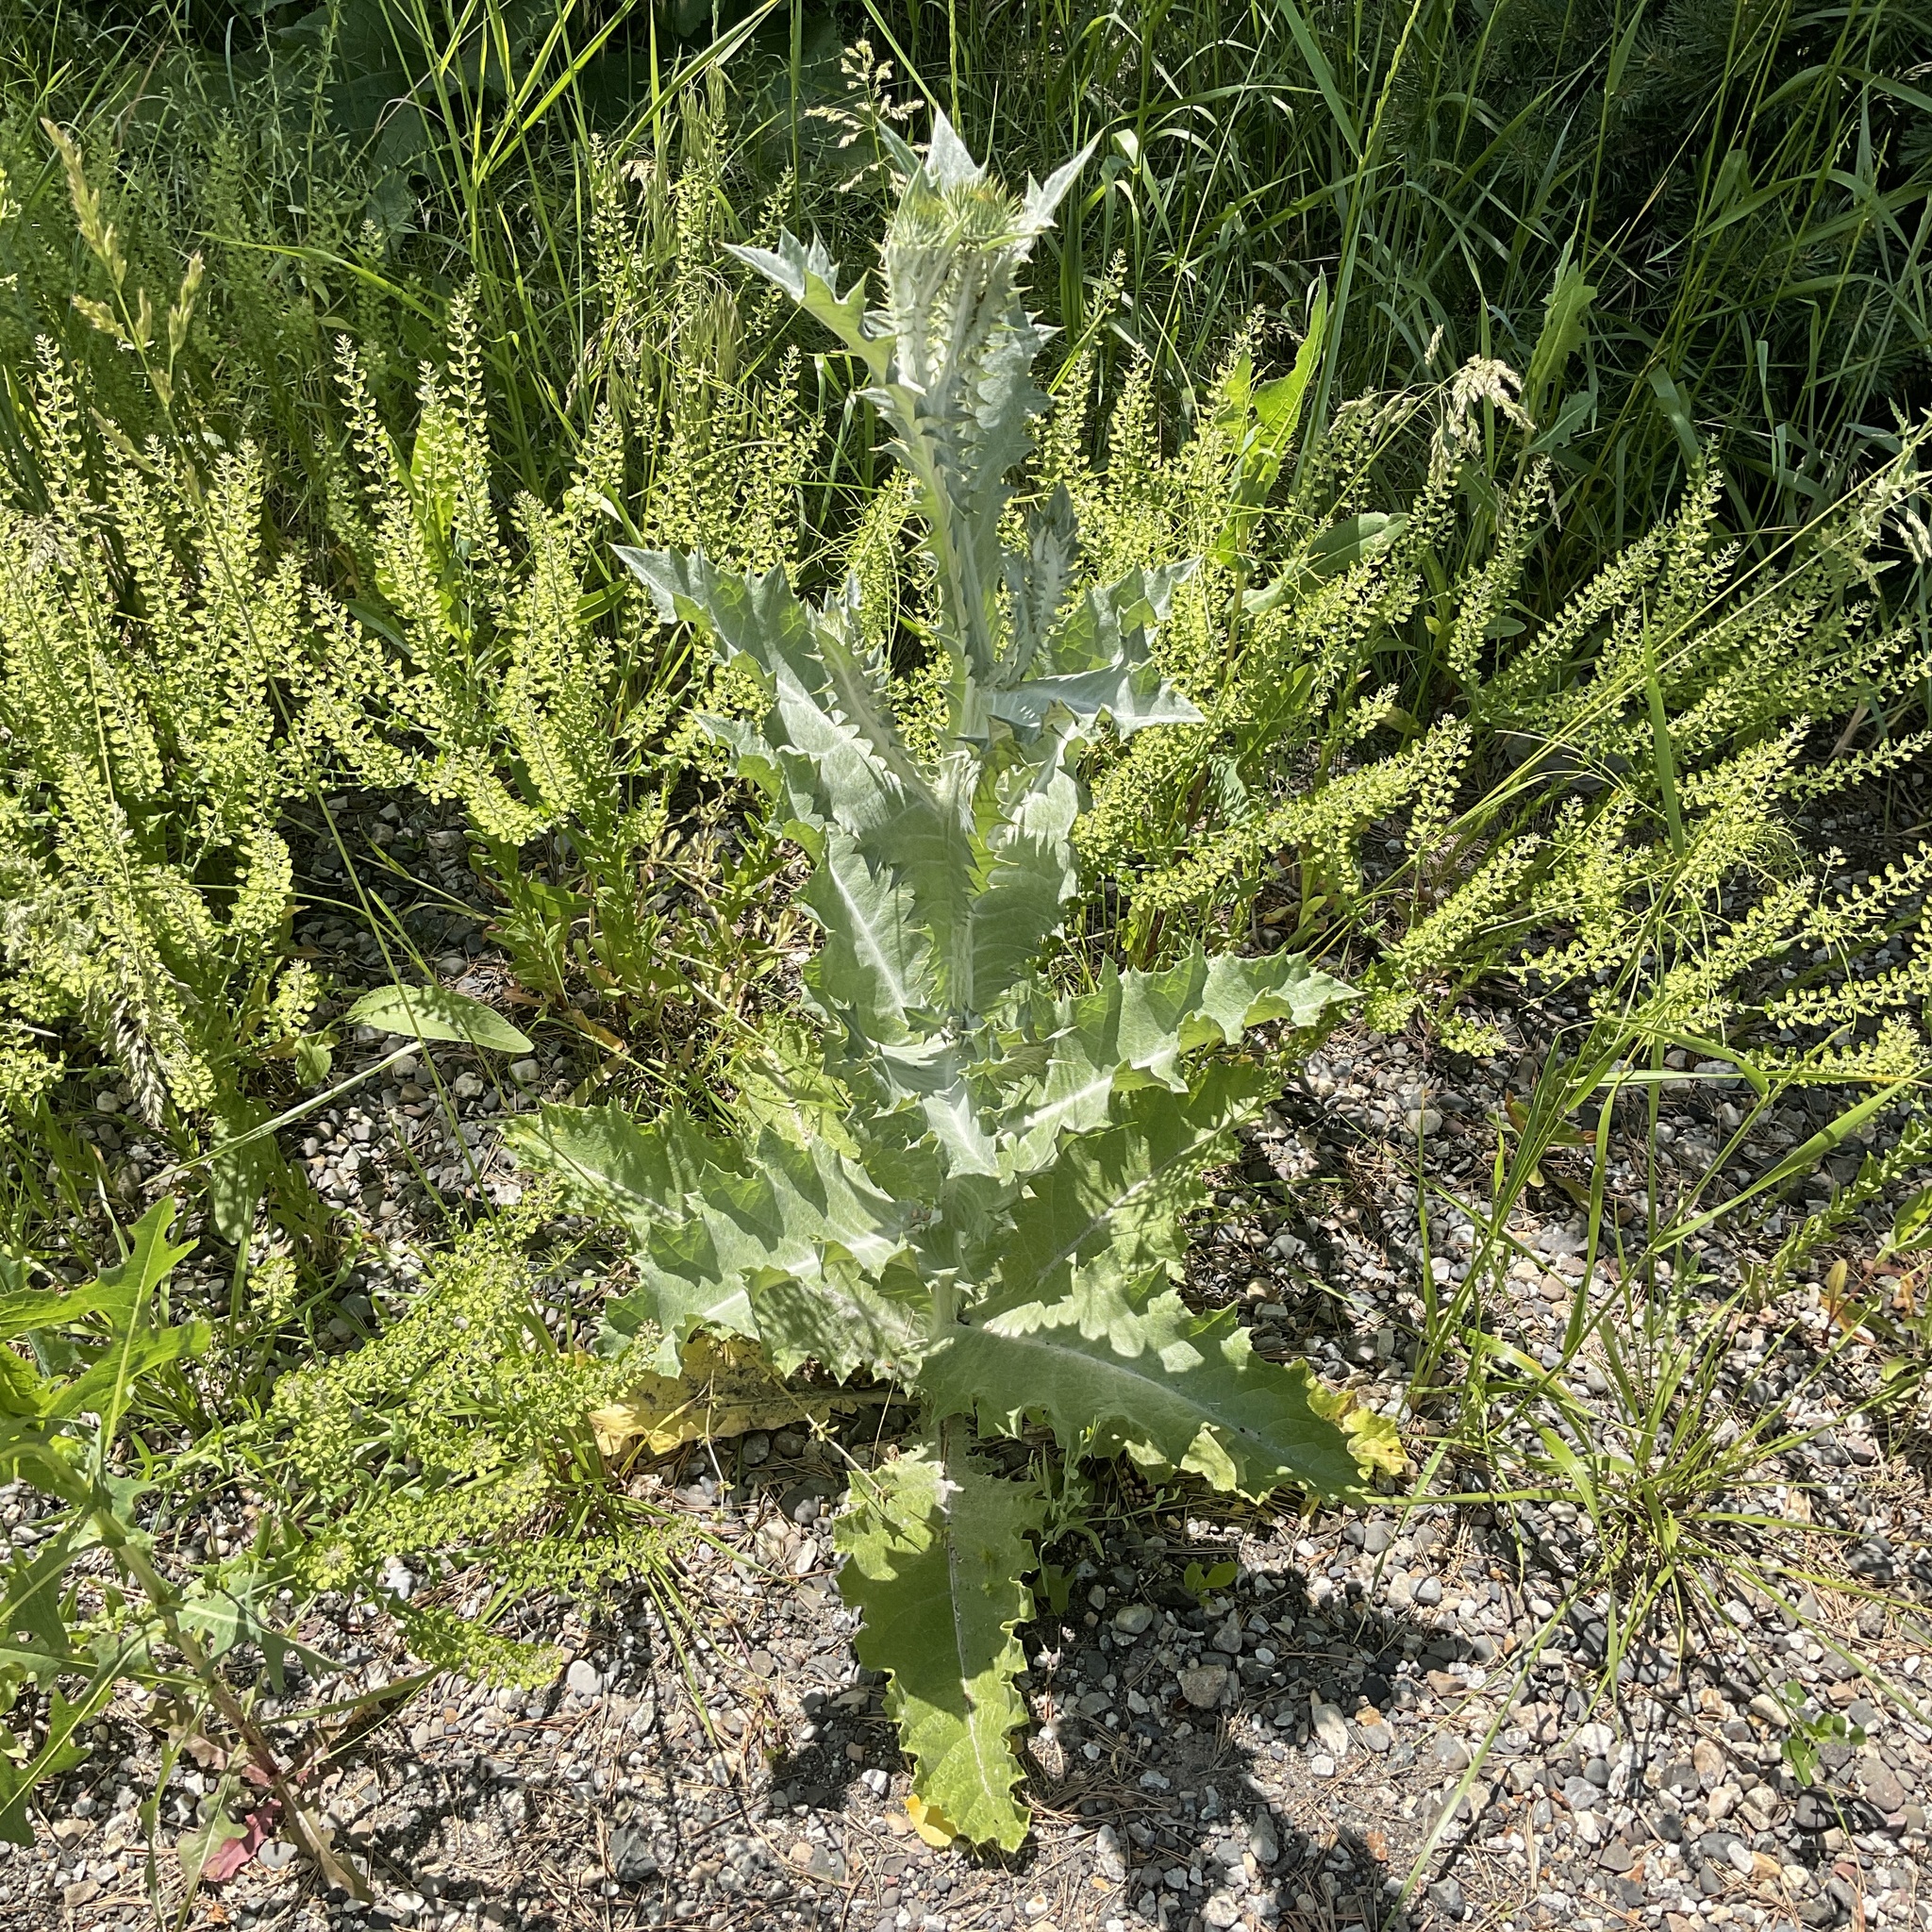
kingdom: Plantae
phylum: Tracheophyta
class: Magnoliopsida
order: Asterales
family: Asteraceae
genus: Onopordum
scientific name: Onopordum acanthium
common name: Scotch thistle
